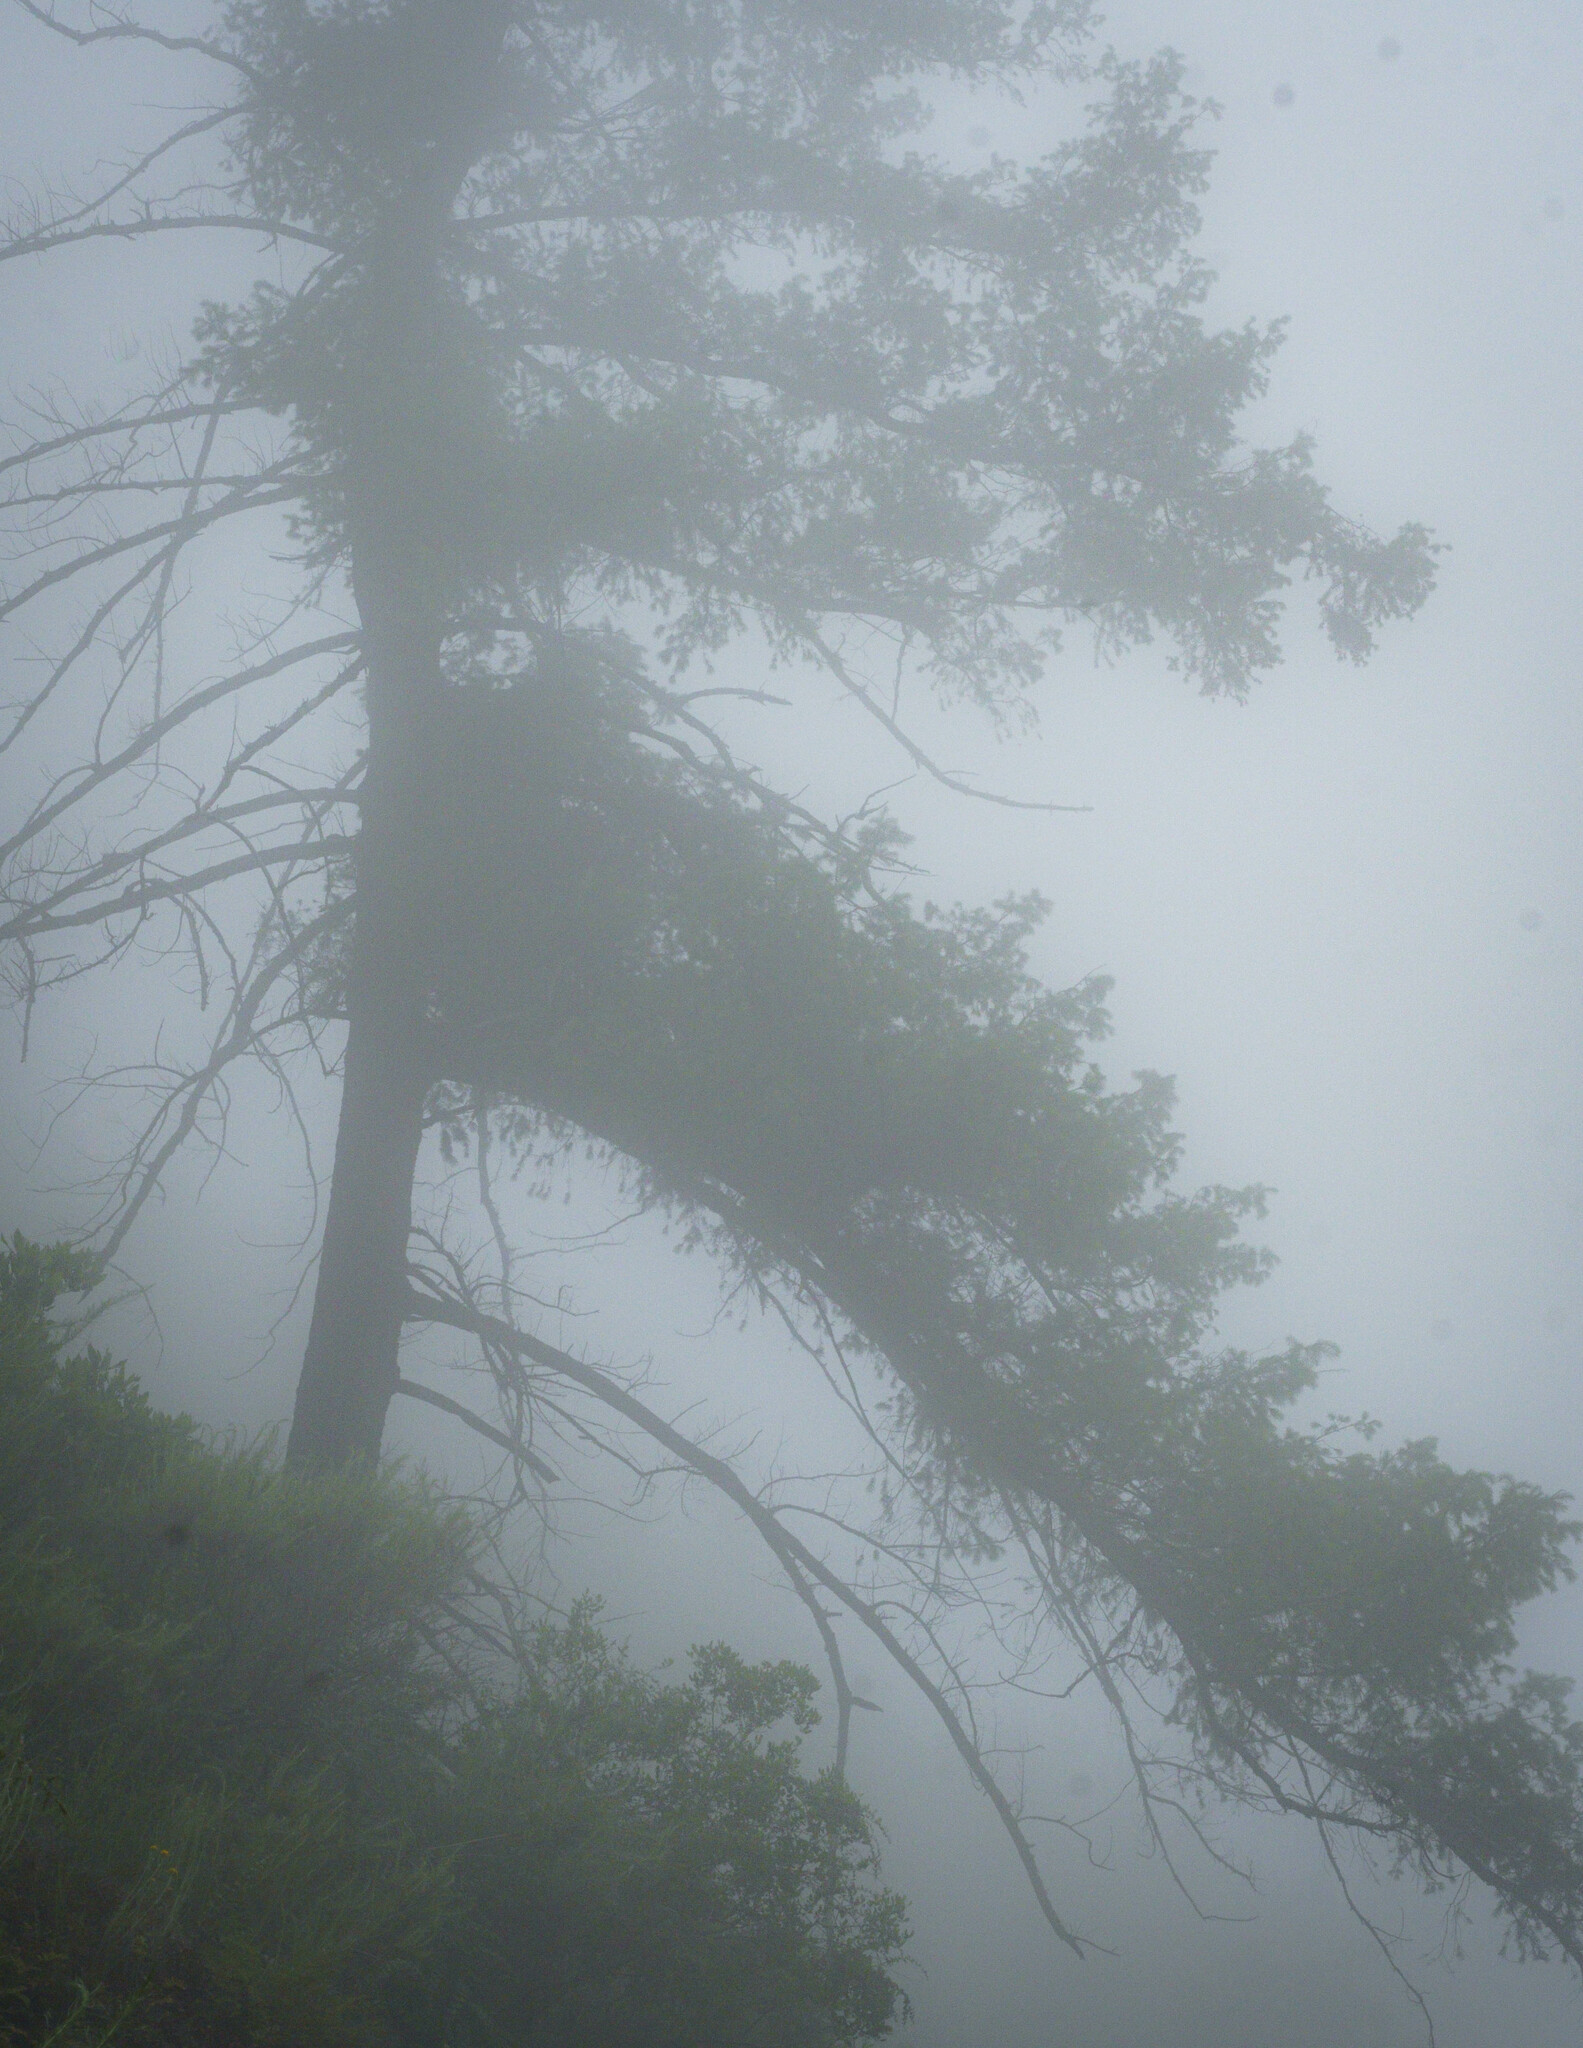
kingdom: Plantae
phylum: Tracheophyta
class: Pinopsida
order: Pinales
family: Pinaceae
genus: Pseudotsuga
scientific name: Pseudotsuga macrocarpa
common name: Big-cone douglas-fir
